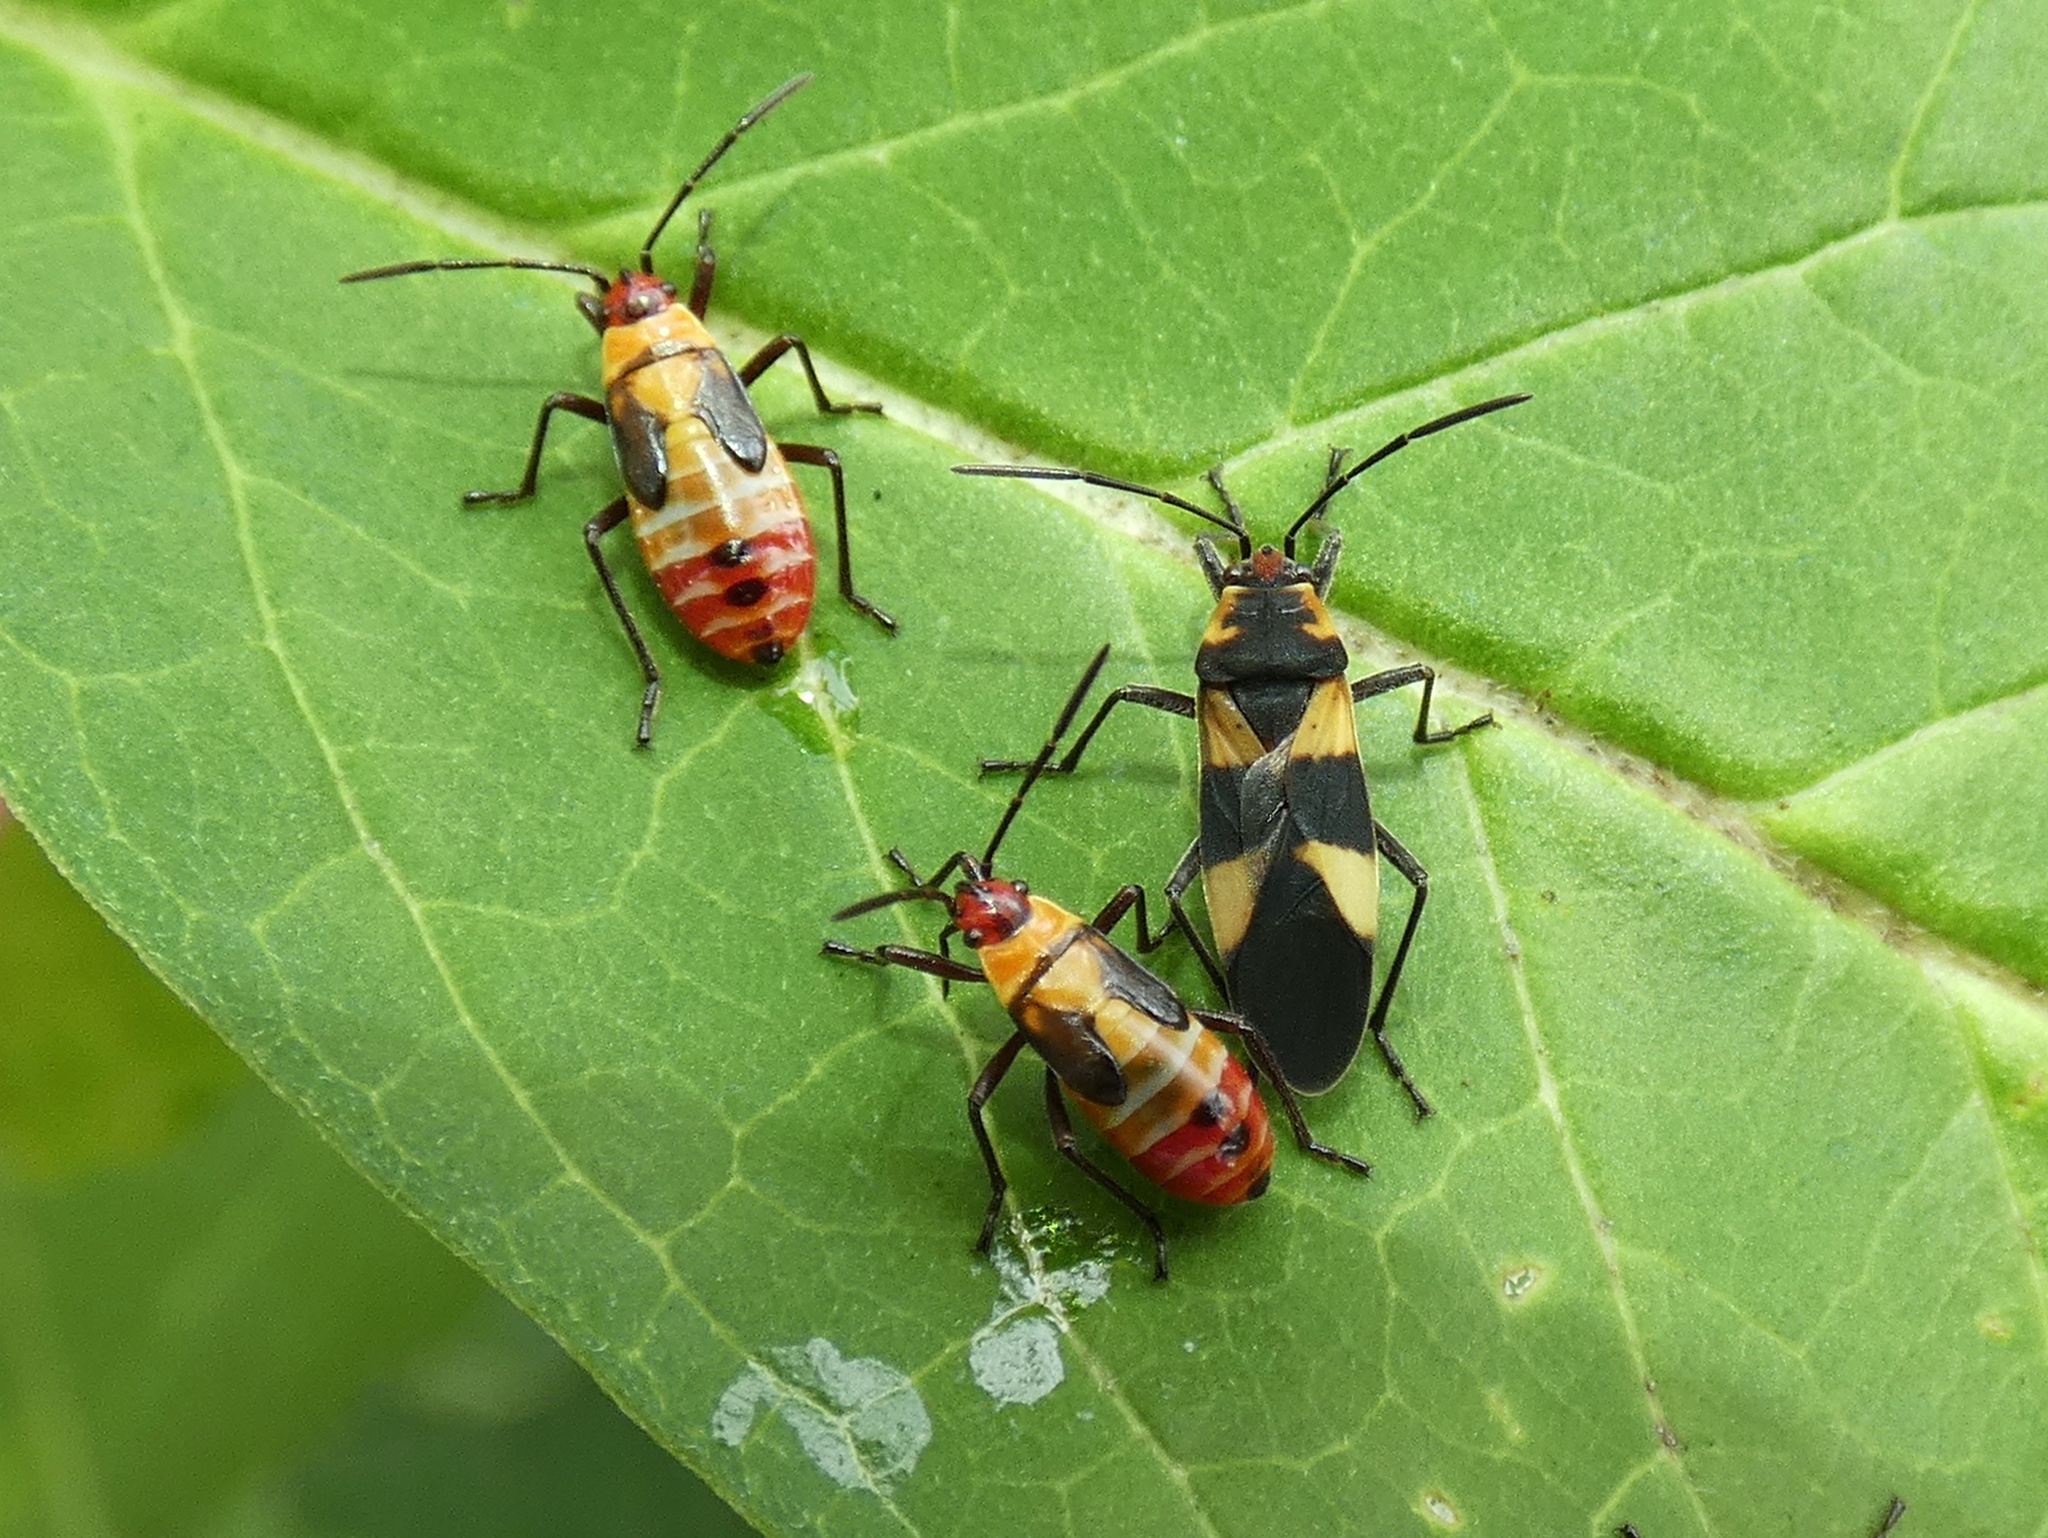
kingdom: Animalia
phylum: Arthropoda
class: Insecta
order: Hemiptera
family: Lygaeidae
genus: Oncopeltus
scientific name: Oncopeltus cingulifer
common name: Lygaeid bug
